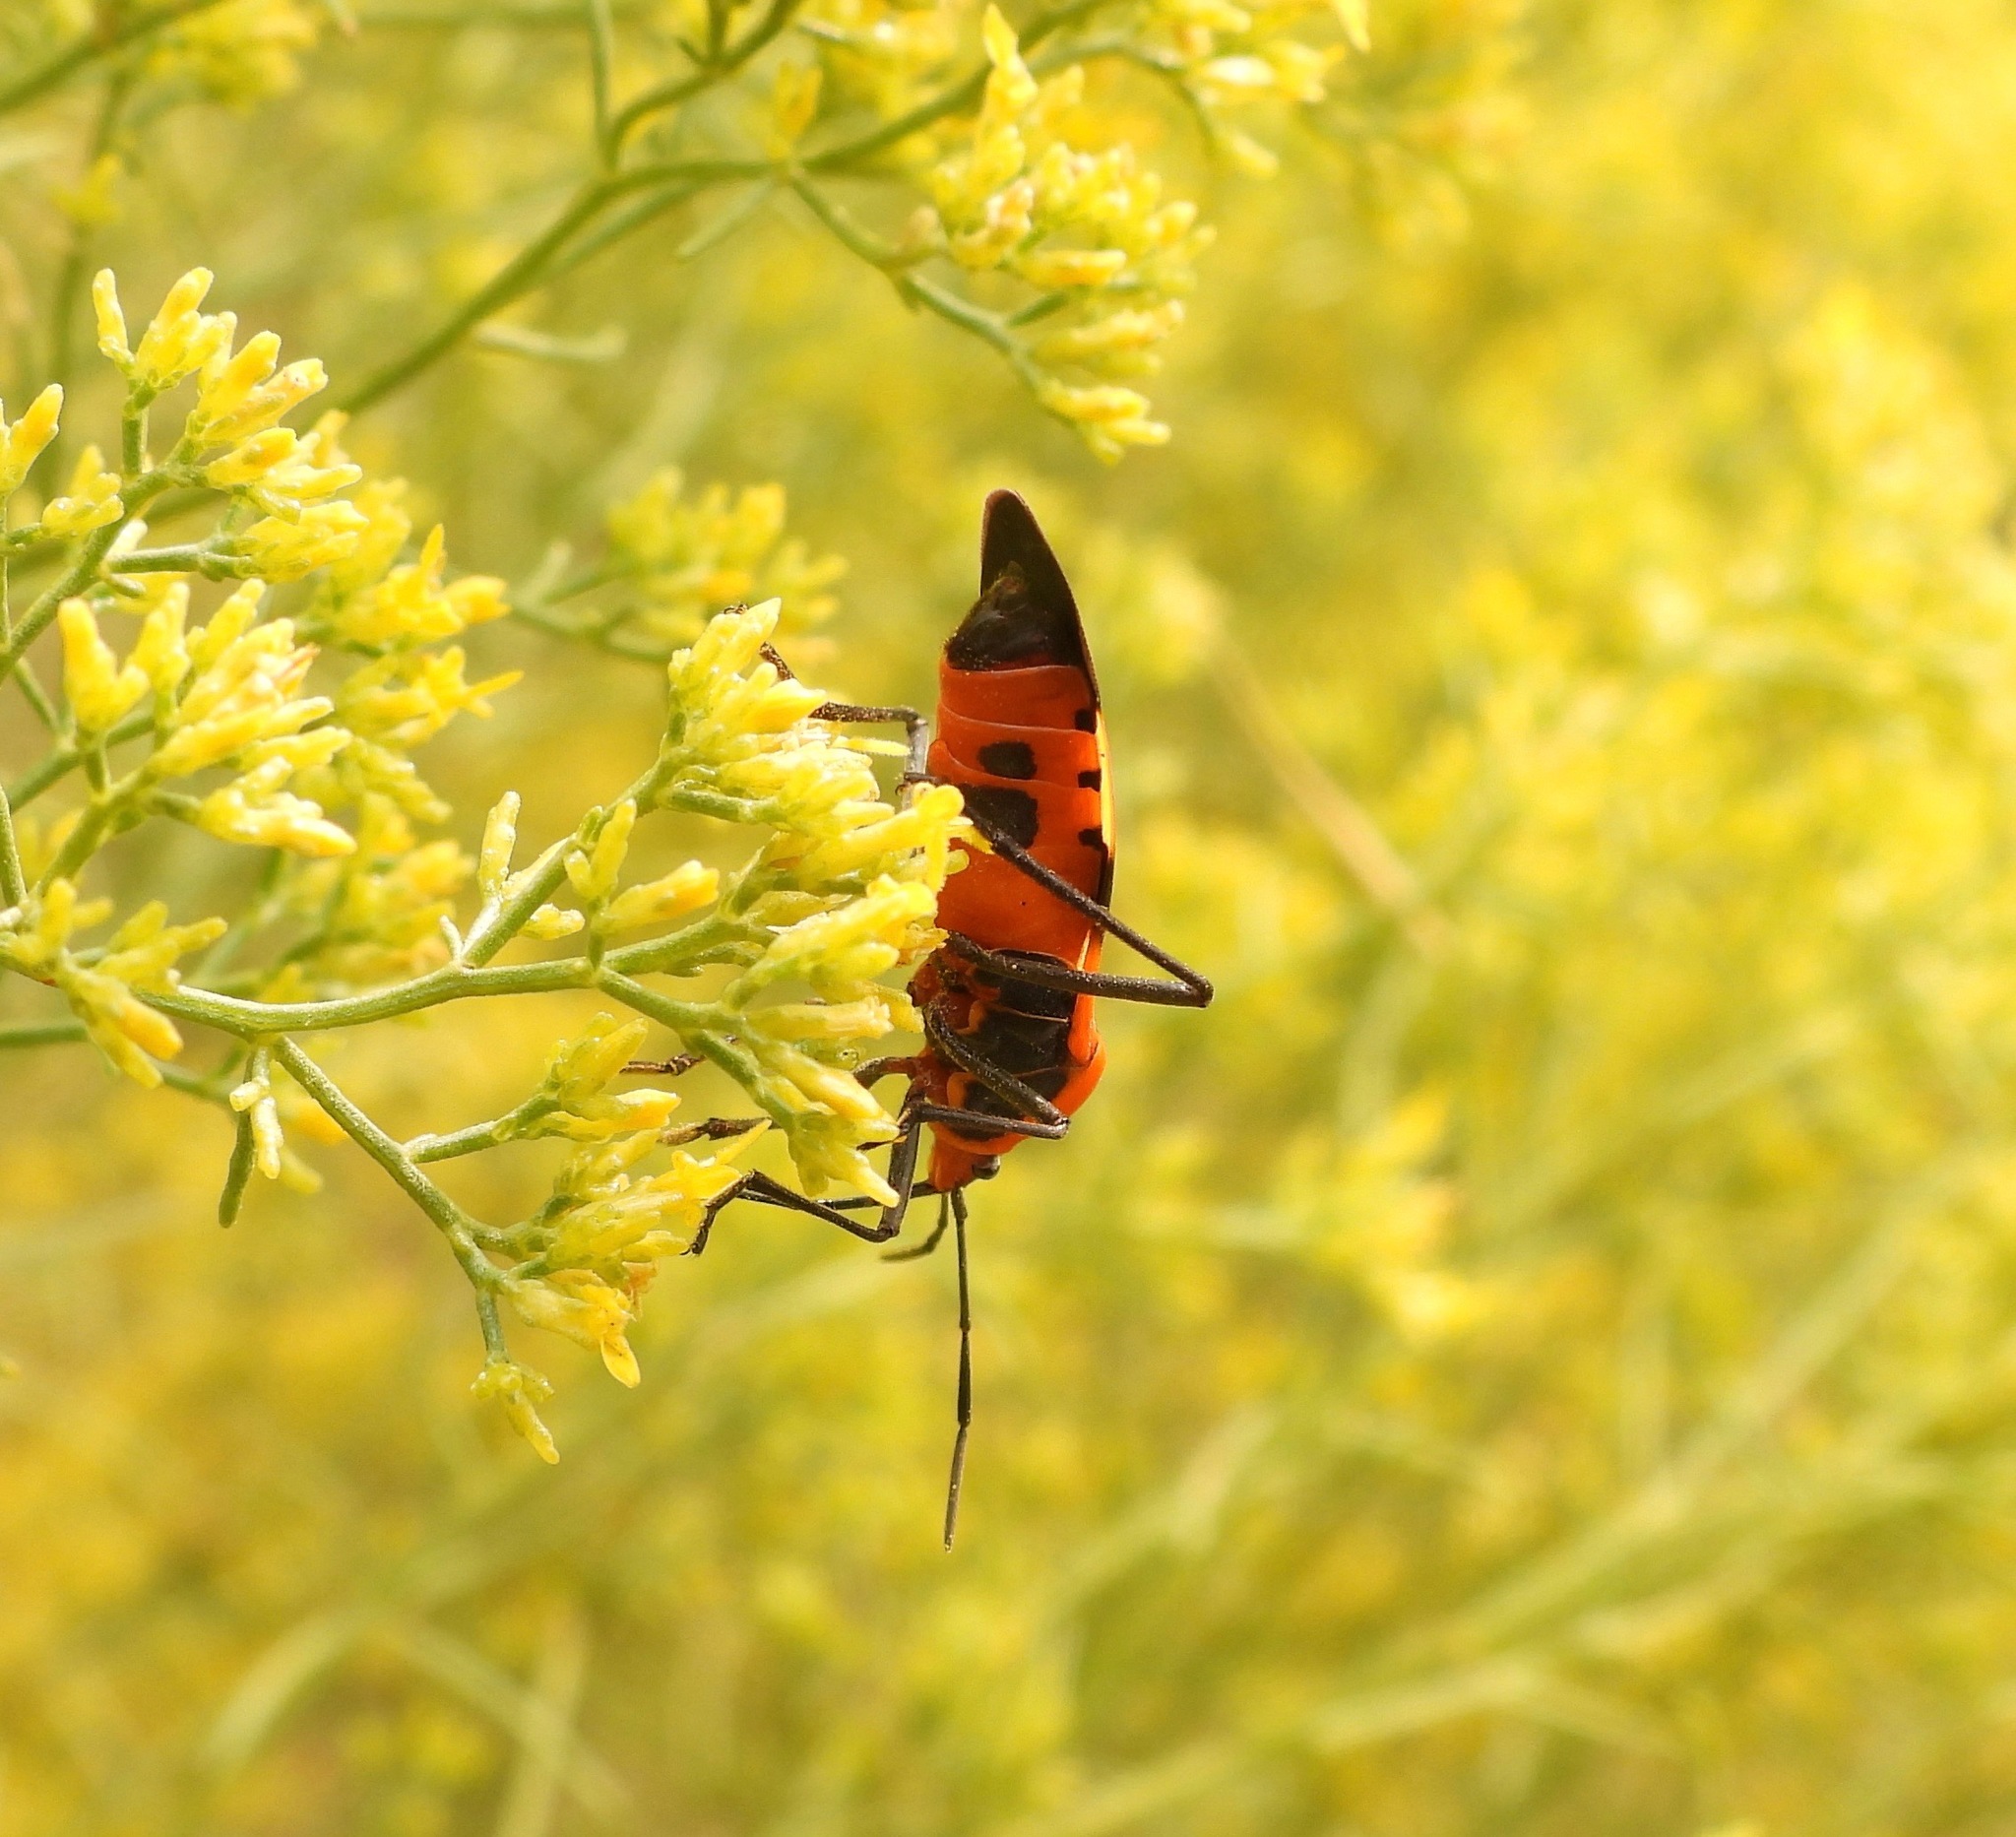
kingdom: Animalia
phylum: Arthropoda
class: Insecta
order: Hemiptera
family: Lygaeidae
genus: Oncopeltus
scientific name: Oncopeltus fasciatus
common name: Large milkweed bug
